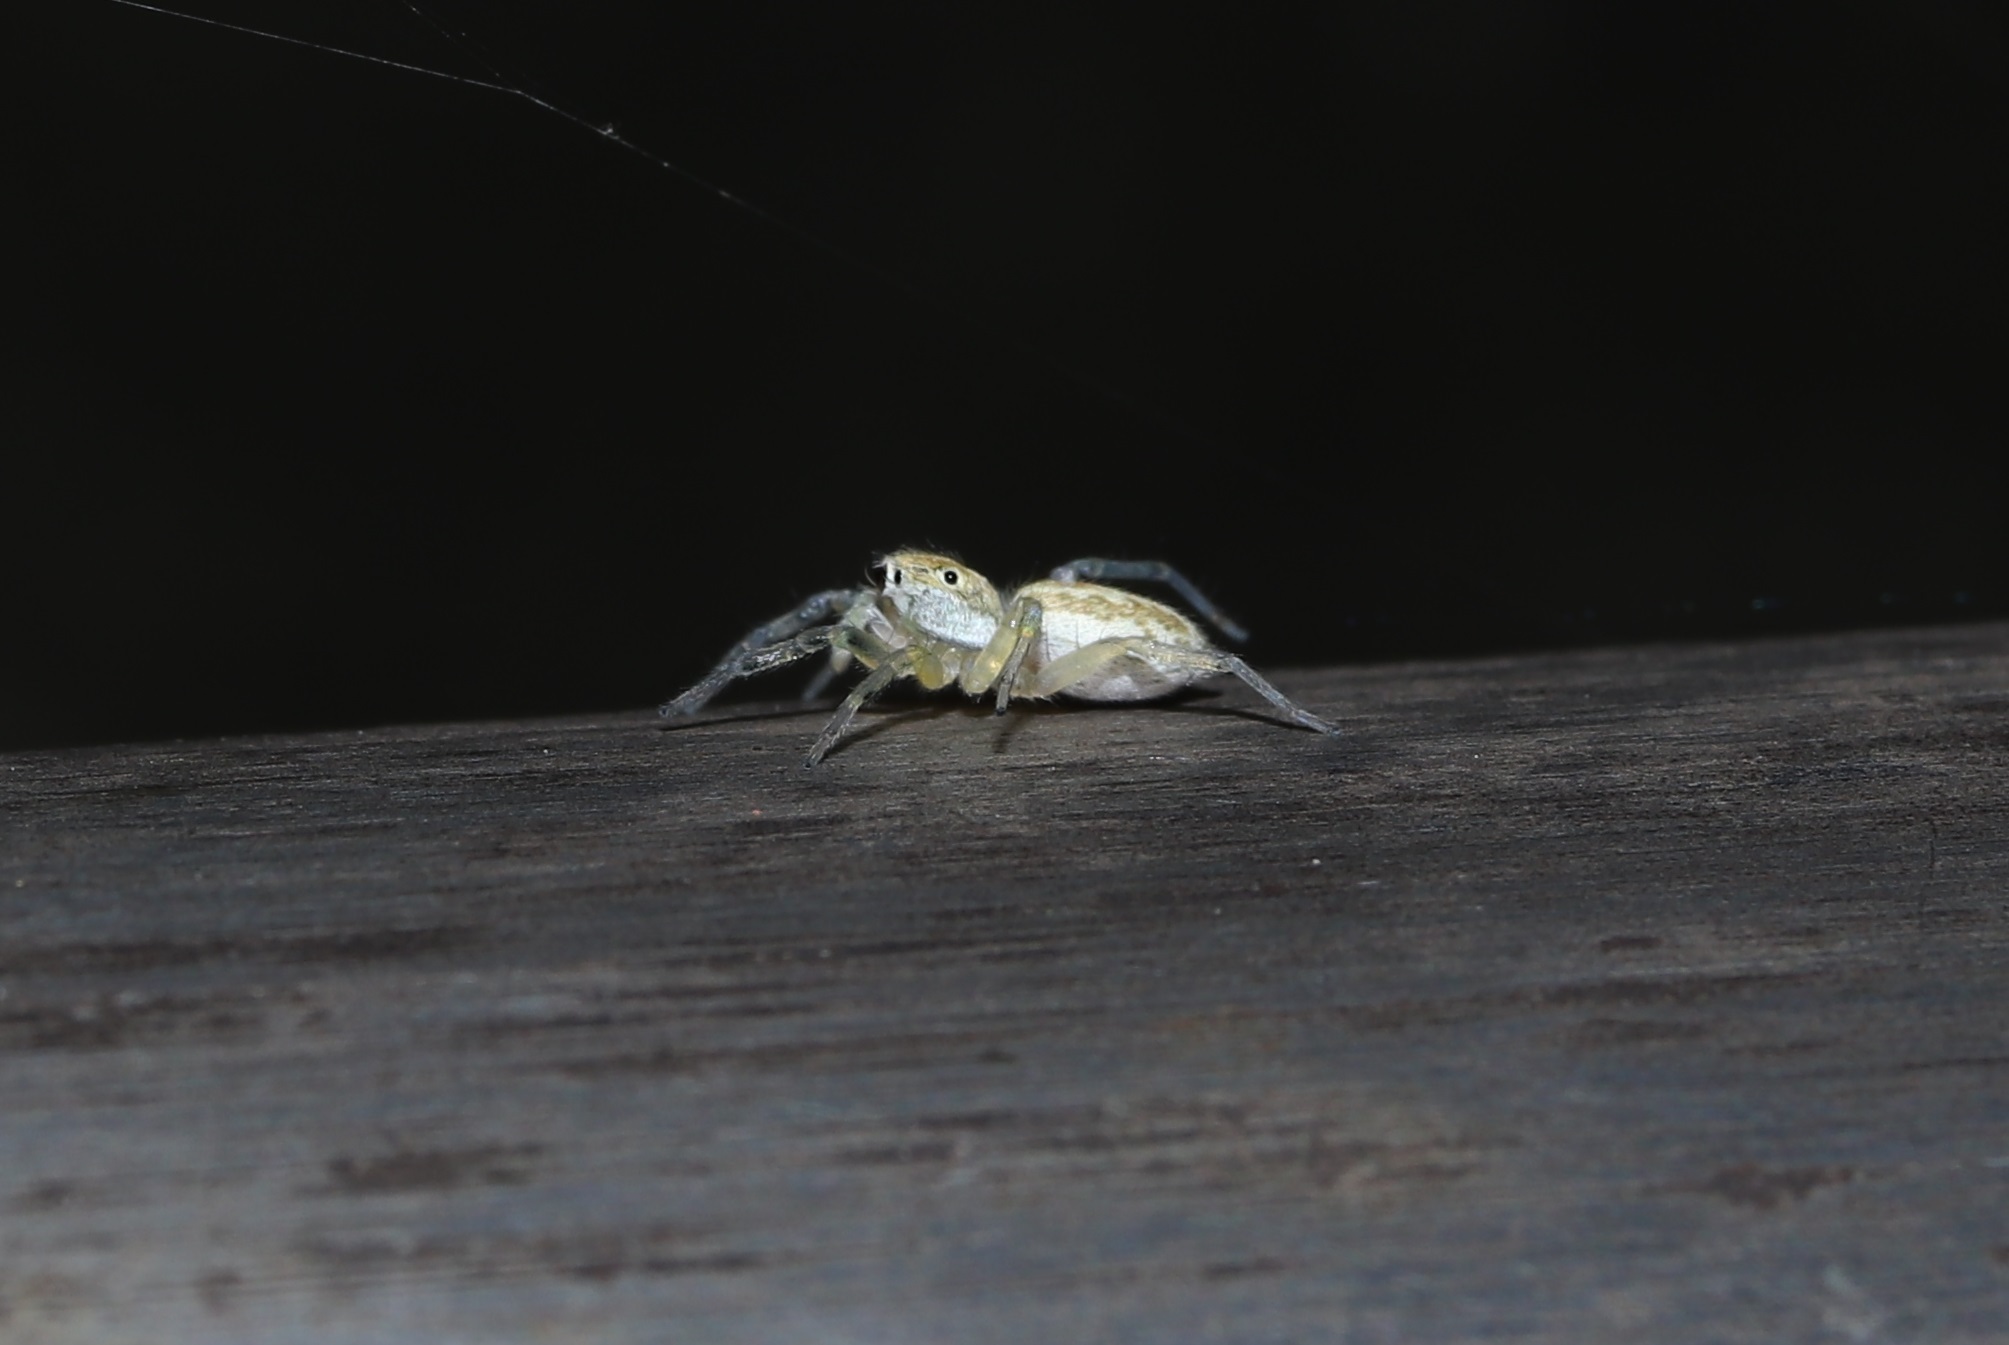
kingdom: Animalia
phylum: Arthropoda
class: Arachnida
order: Araneae
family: Salticidae
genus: Phintella
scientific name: Phintella abnormis
